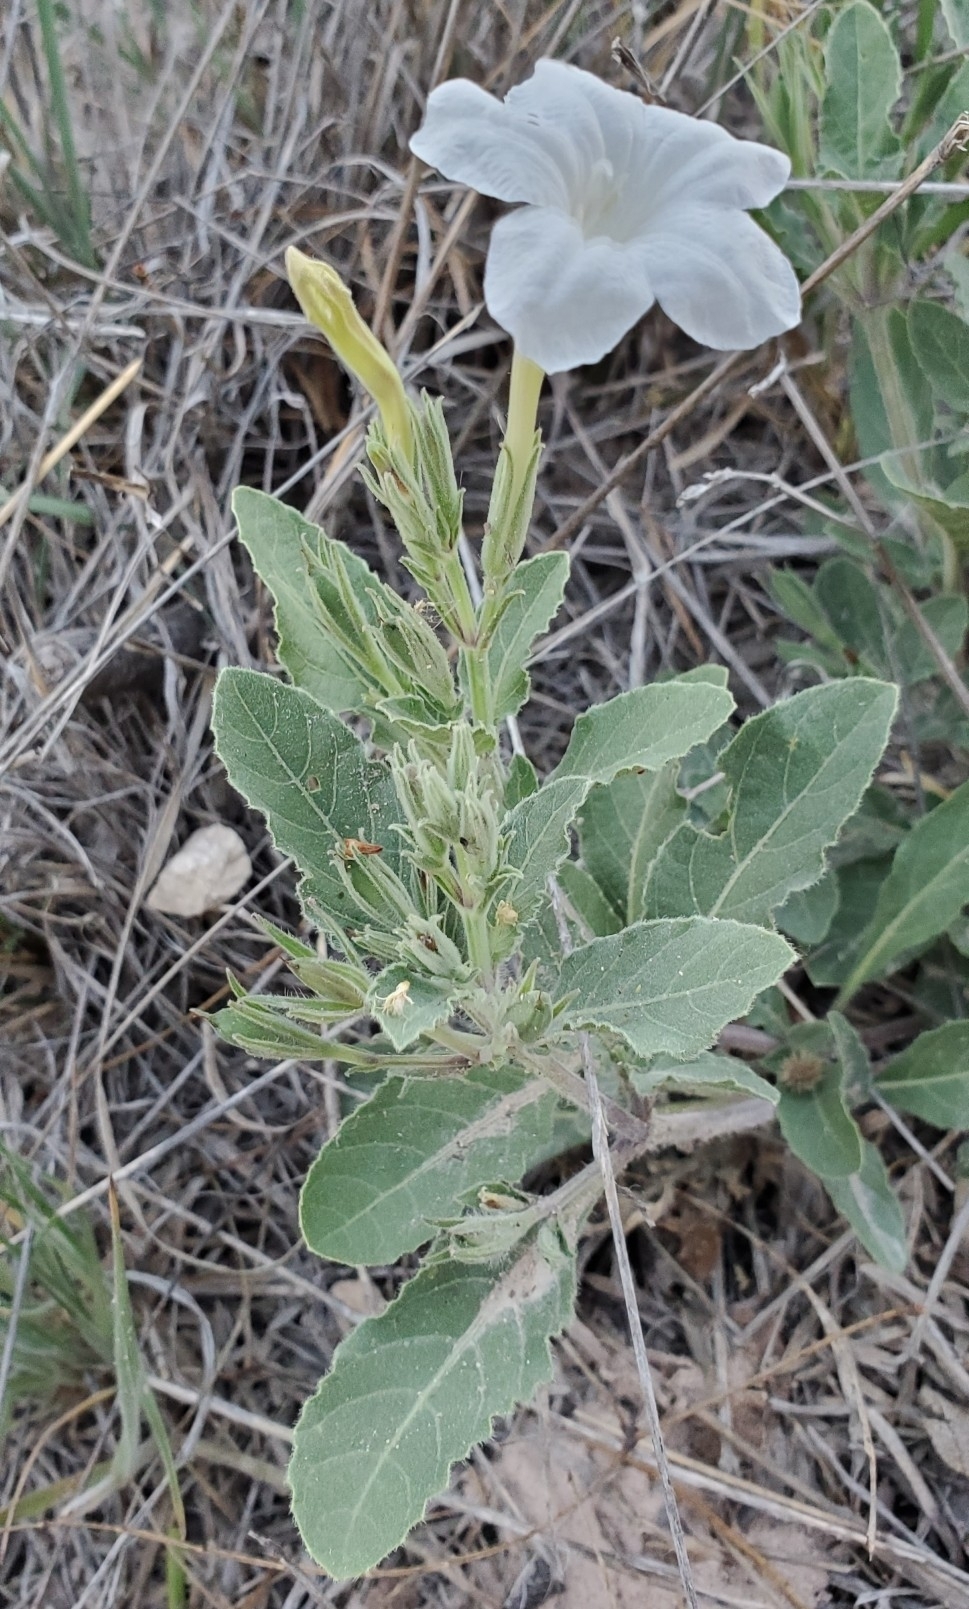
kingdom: Plantae
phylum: Tracheophyta
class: Magnoliopsida
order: Lamiales
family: Acanthaceae
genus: Ruellia
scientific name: Ruellia metziae
